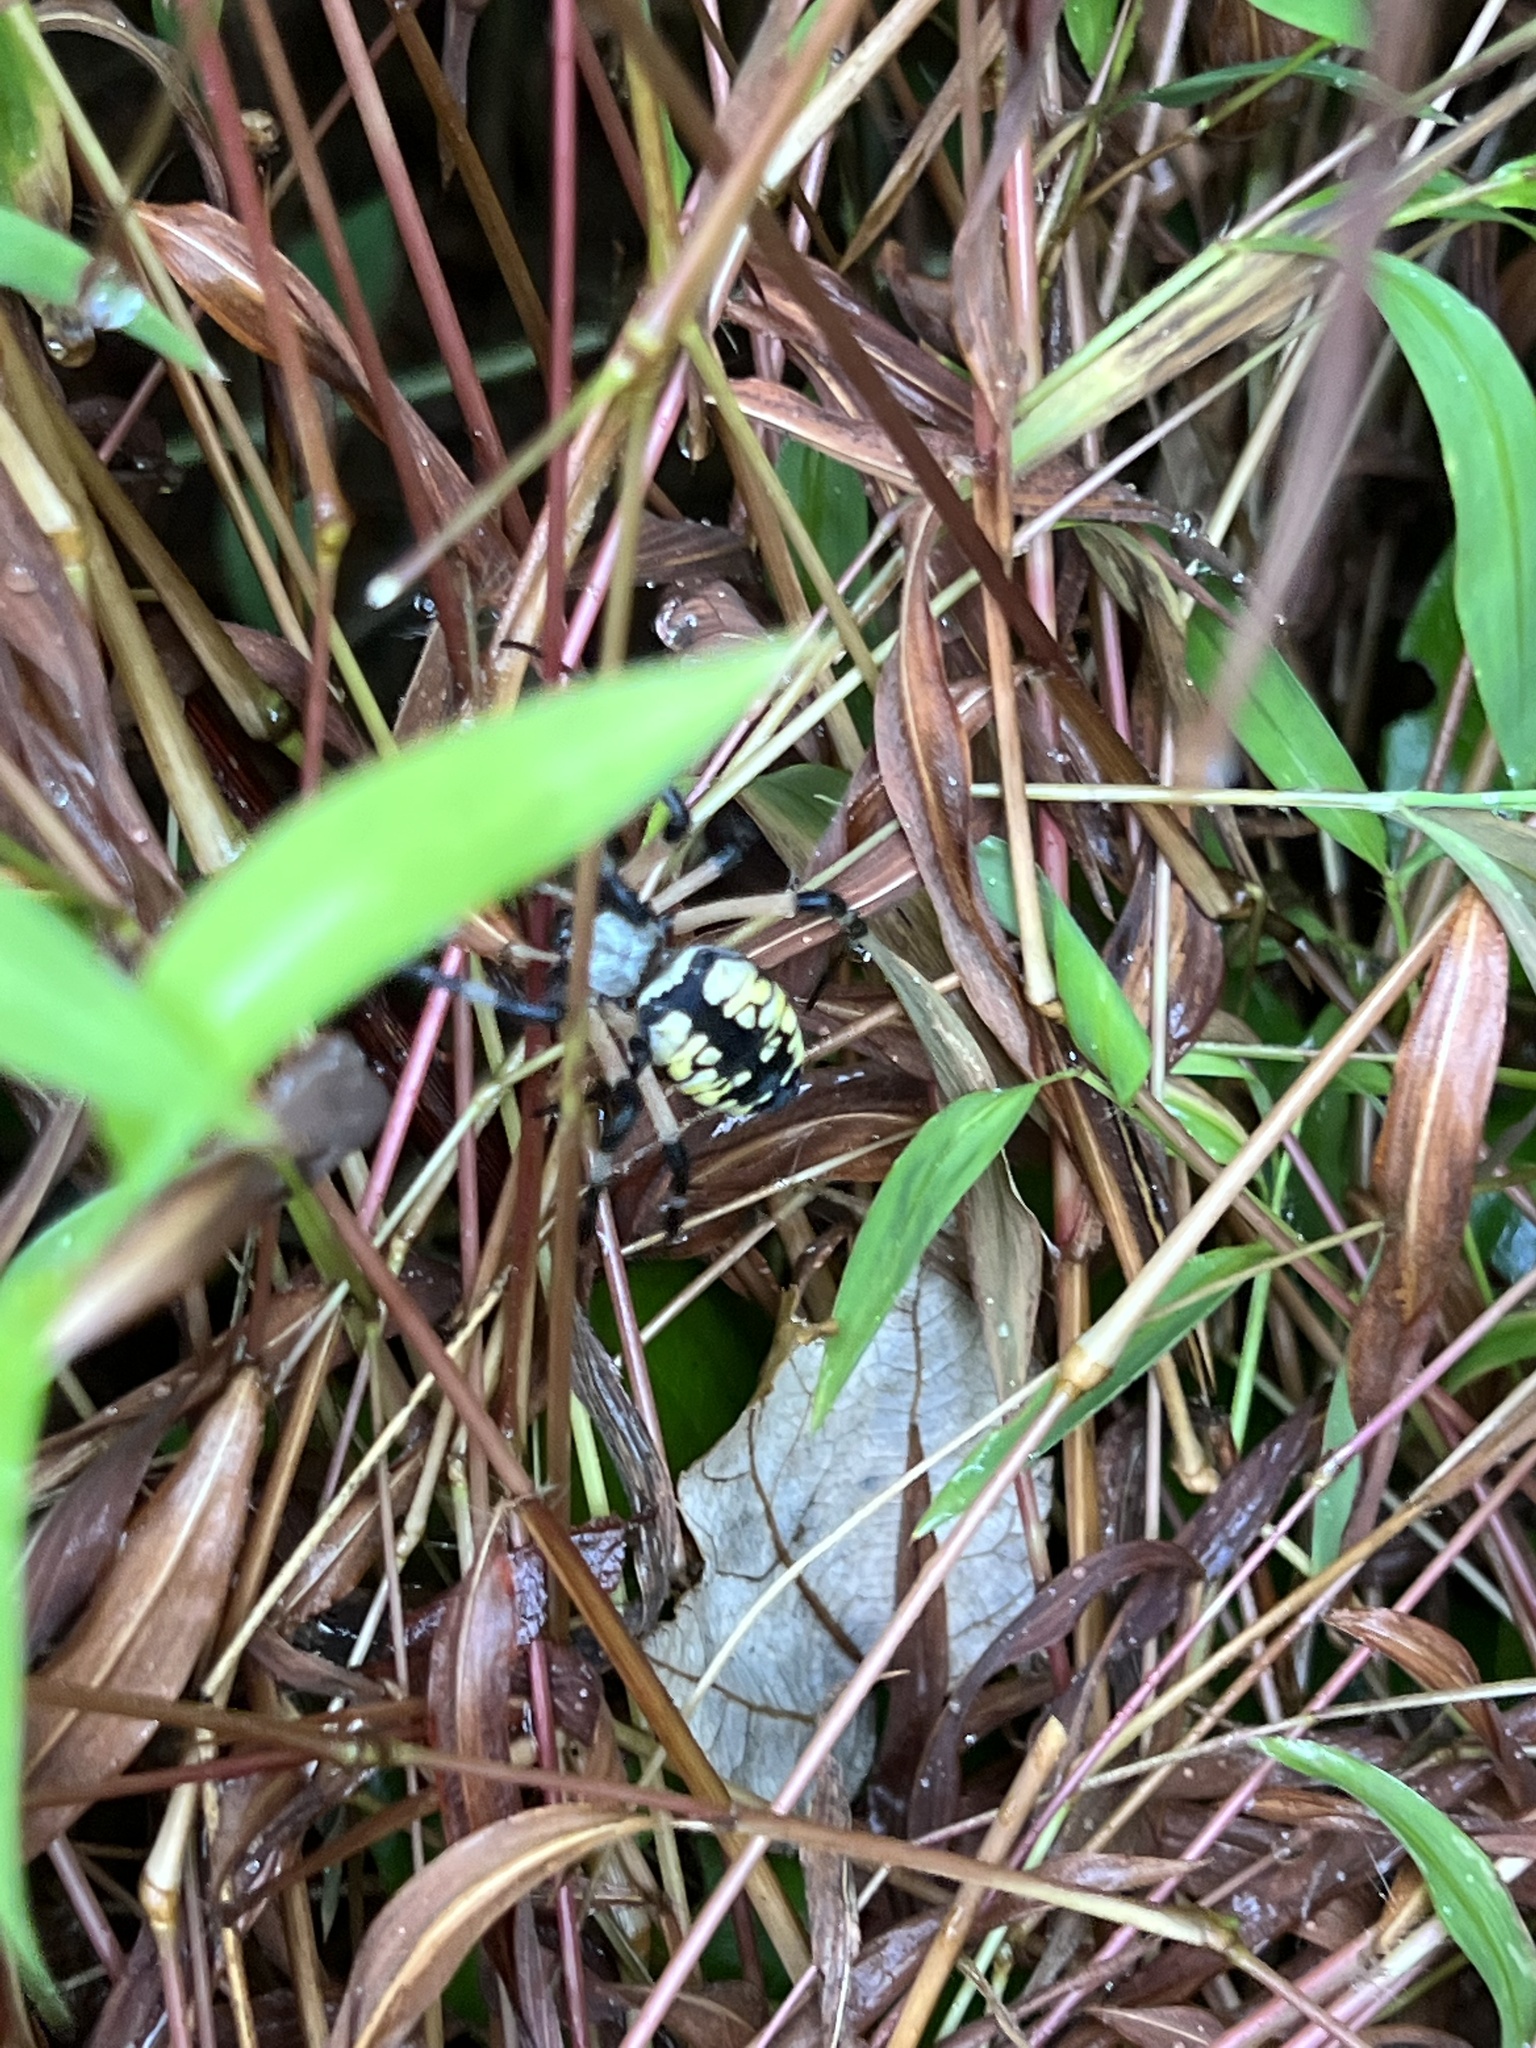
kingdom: Animalia
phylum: Arthropoda
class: Arachnida
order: Araneae
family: Araneidae
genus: Argiope
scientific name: Argiope aurantia
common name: Orb weavers
